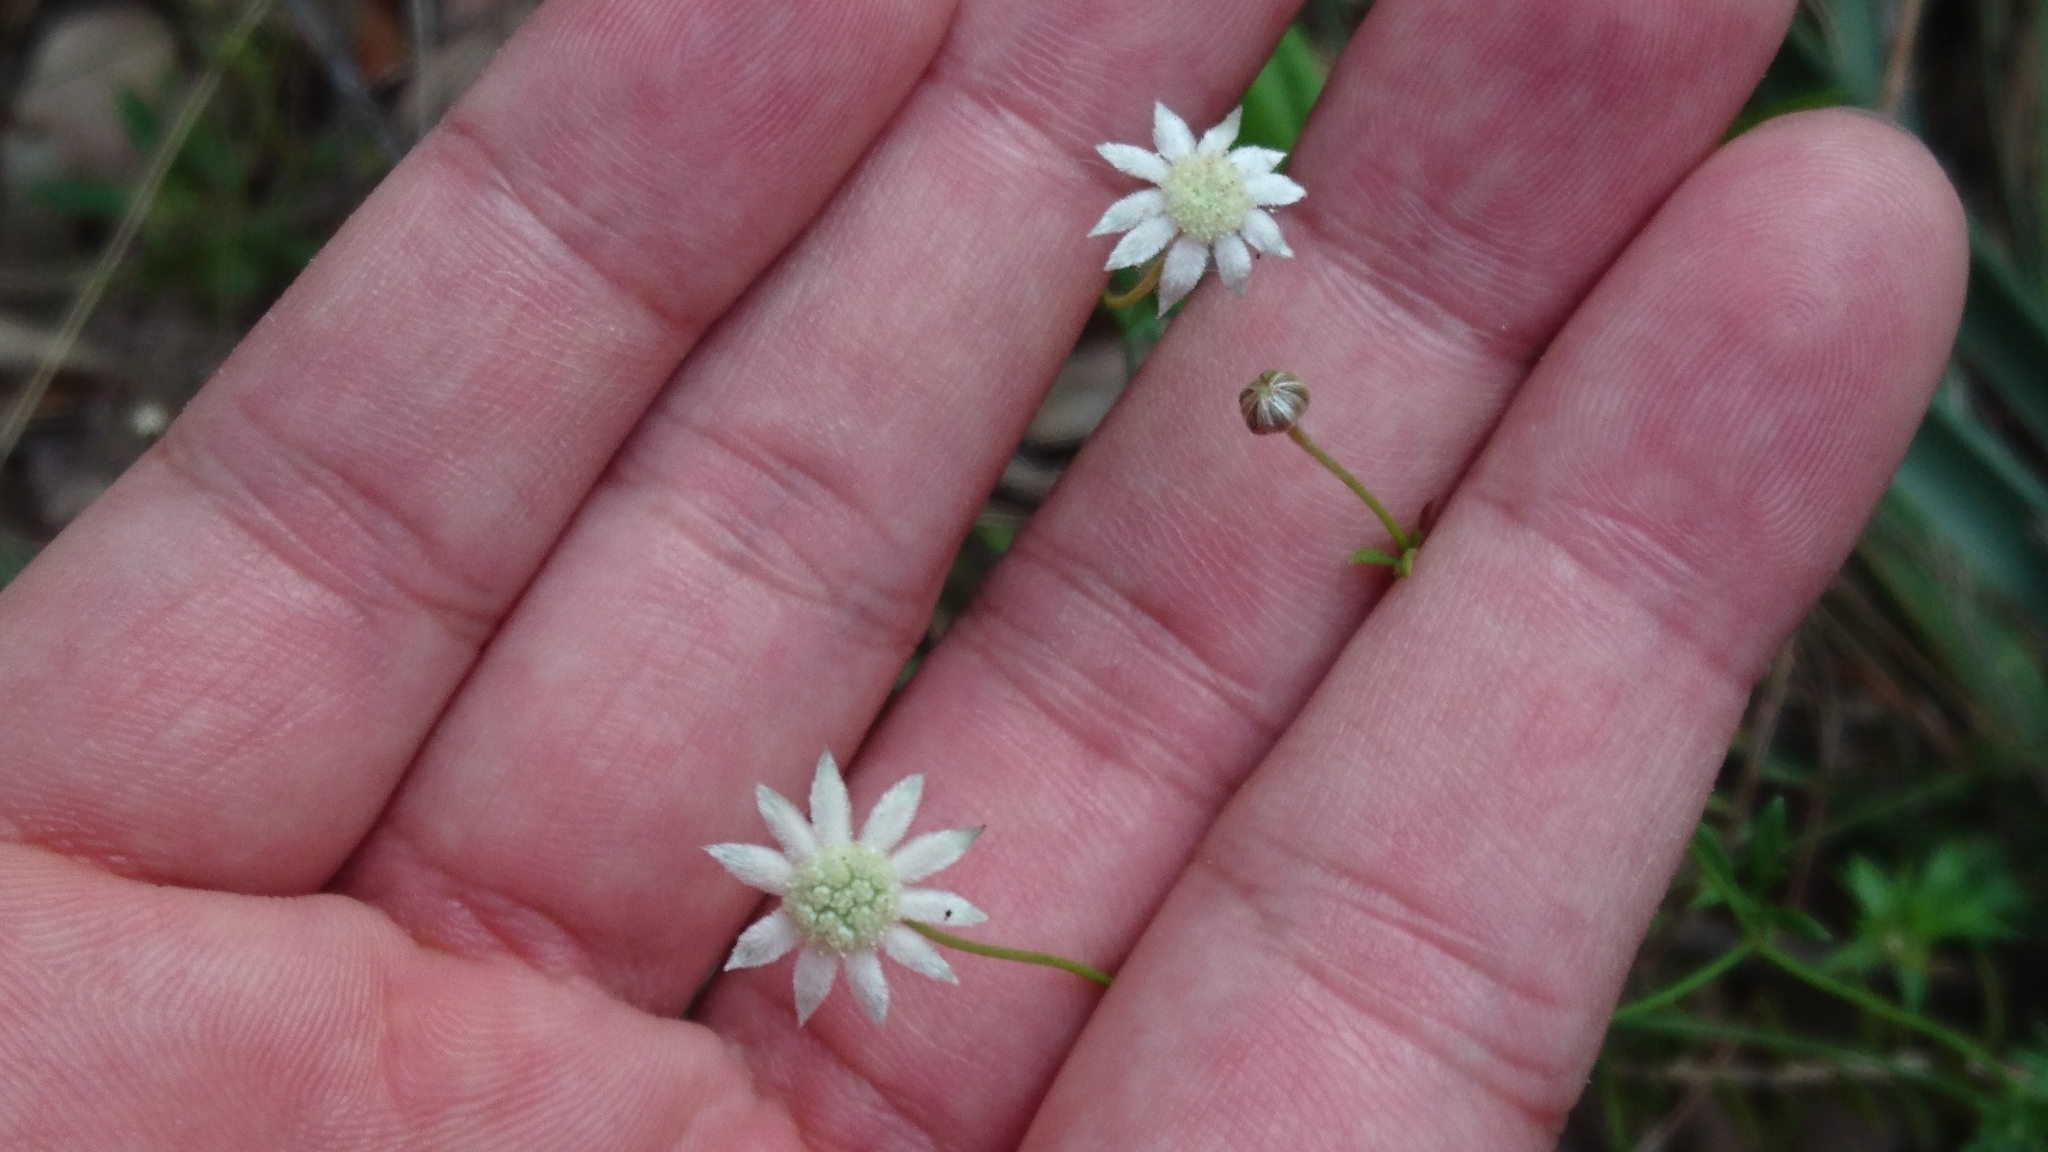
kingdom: Plantae
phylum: Tracheophyta
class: Magnoliopsida
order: Apiales
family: Apiaceae
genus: Actinotus
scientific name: Actinotus minor
